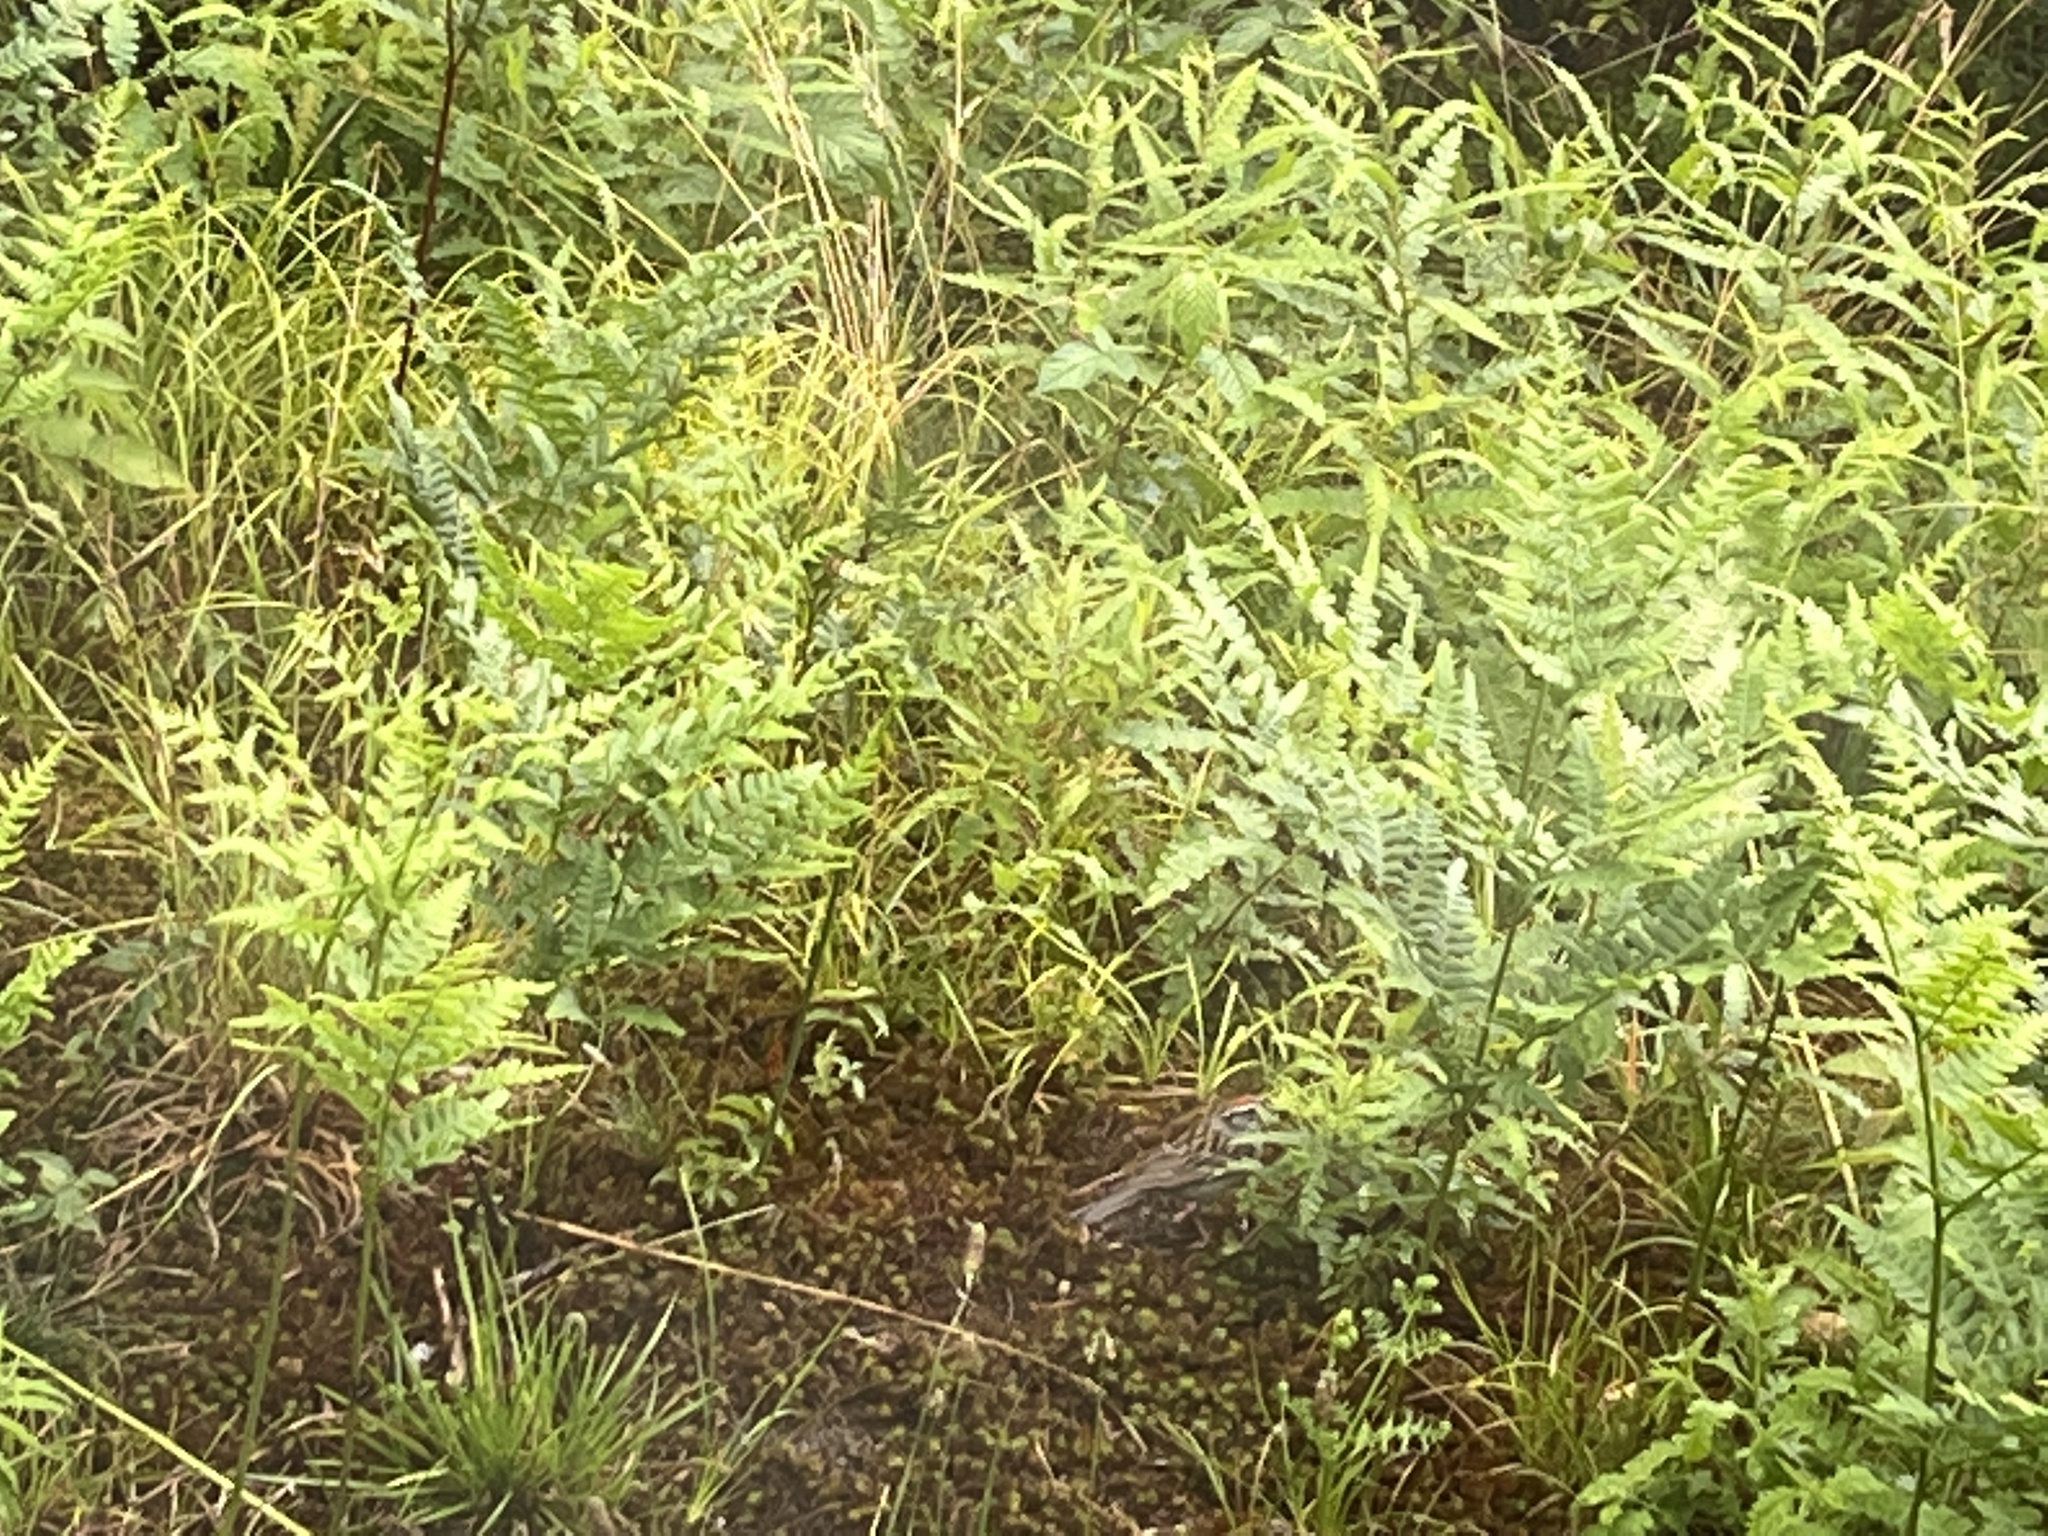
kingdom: Animalia
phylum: Chordata
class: Aves
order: Passeriformes
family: Passerellidae
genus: Spizella
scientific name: Spizella passerina
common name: Chipping sparrow
